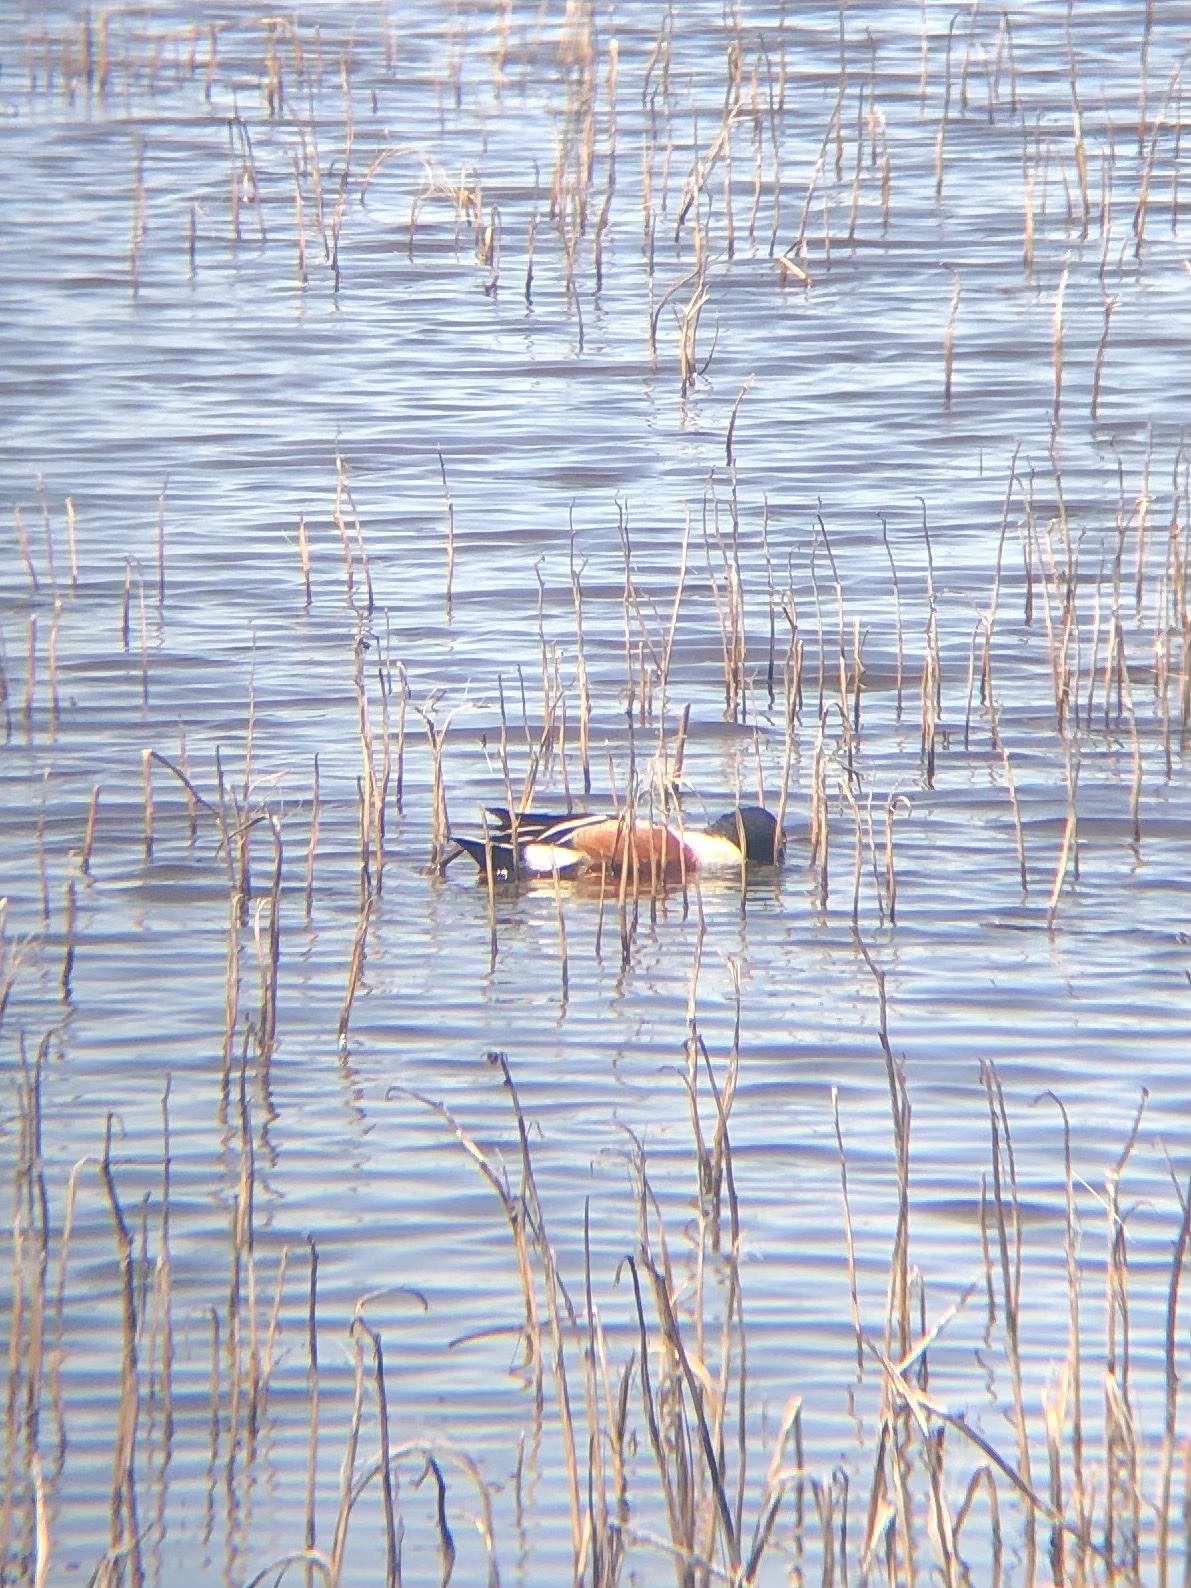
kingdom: Animalia
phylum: Chordata
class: Aves
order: Anseriformes
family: Anatidae
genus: Spatula
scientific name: Spatula clypeata
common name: Northern shoveler
